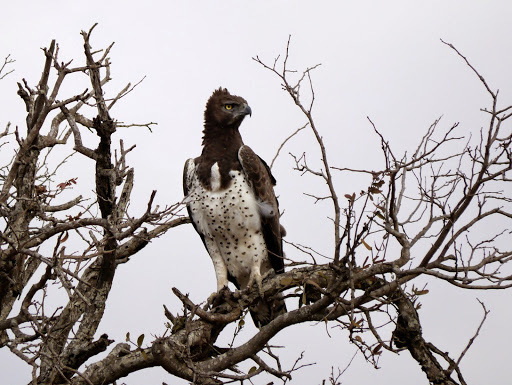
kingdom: Animalia
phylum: Chordata
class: Aves
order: Accipitriformes
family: Accipitridae
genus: Polemaetus
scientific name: Polemaetus bellicosus
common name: Martial eagle
